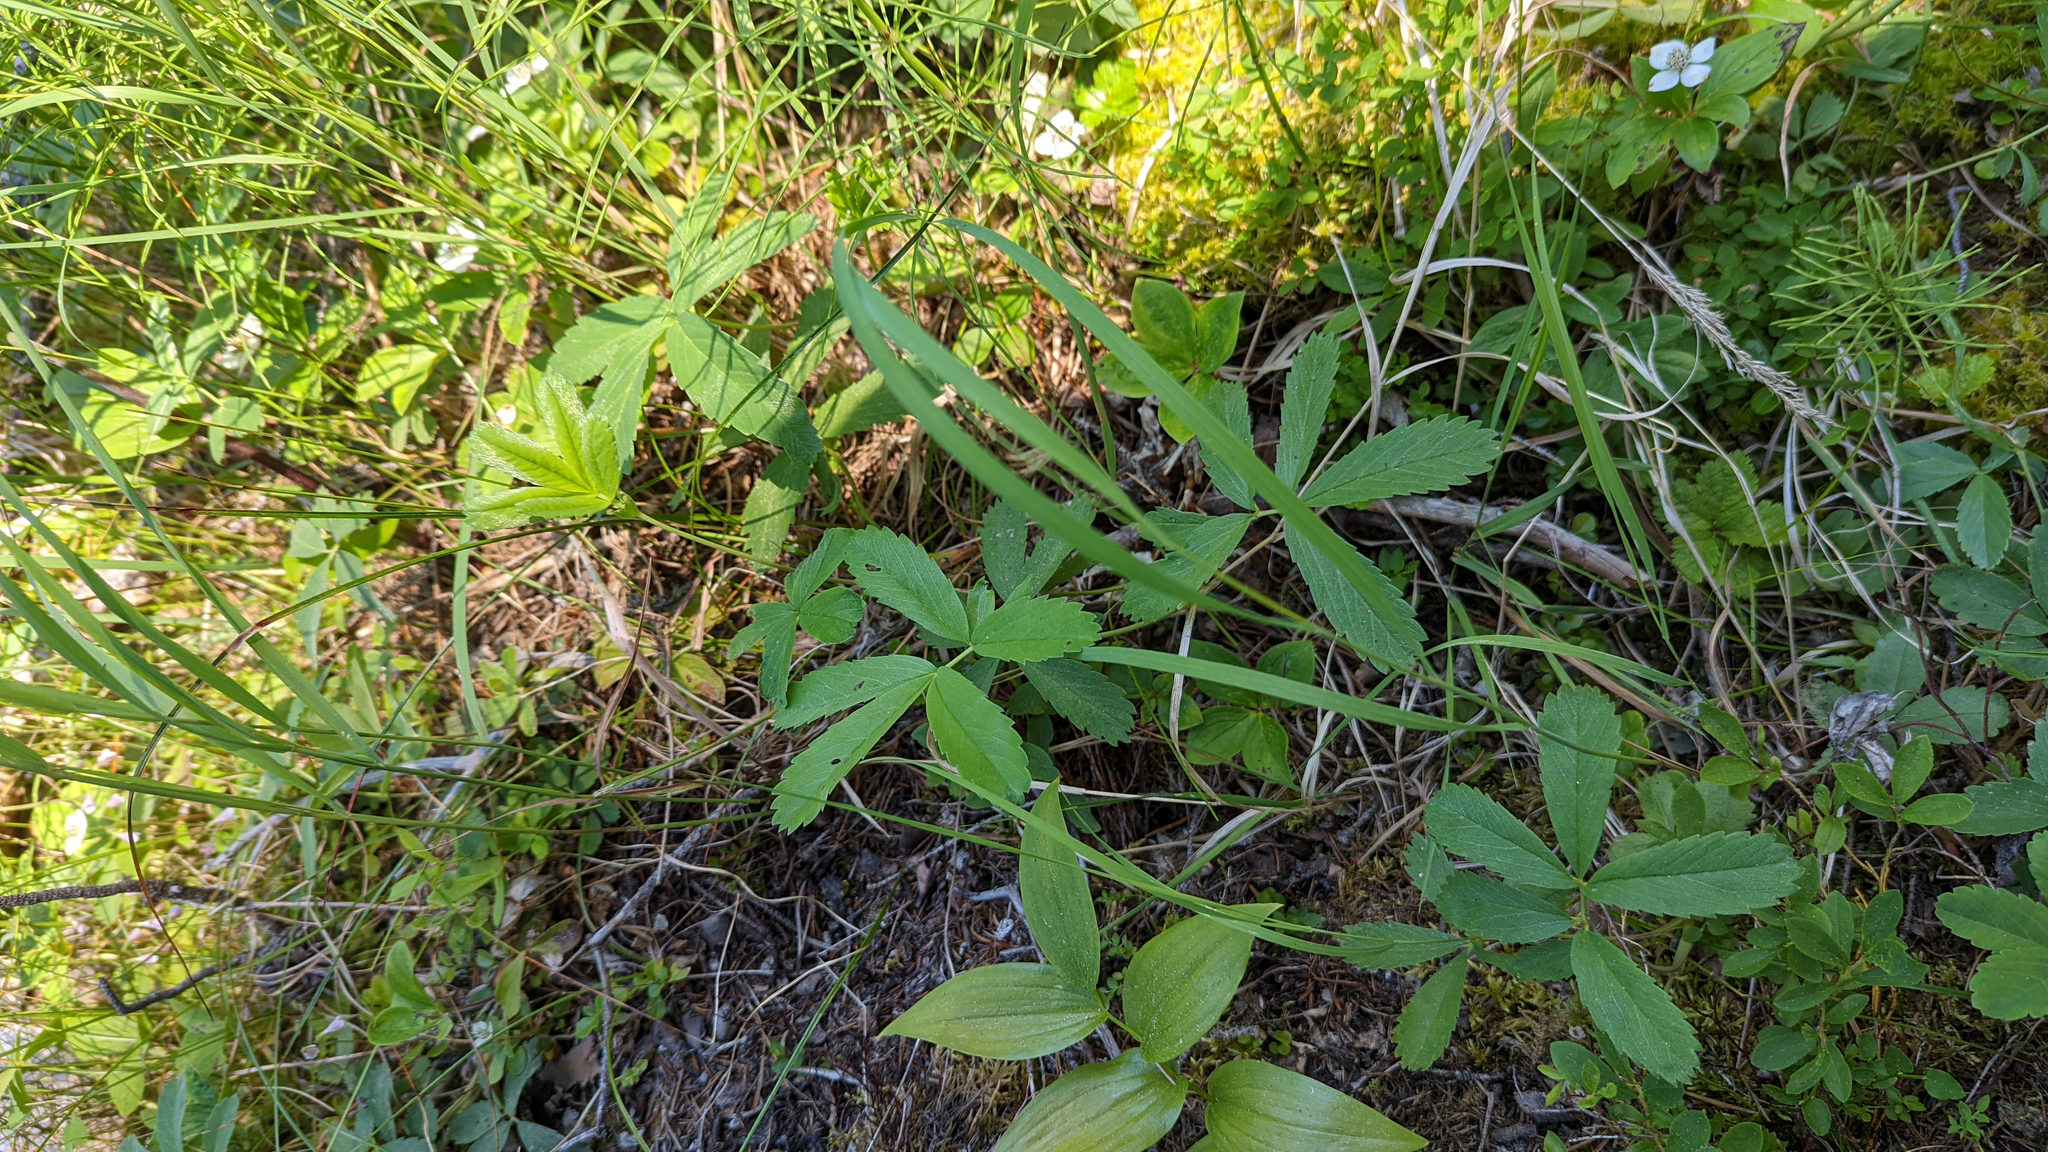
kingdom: Plantae
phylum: Tracheophyta
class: Magnoliopsida
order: Rosales
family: Rosaceae
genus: Comarum
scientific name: Comarum palustre
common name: Marsh cinquefoil
